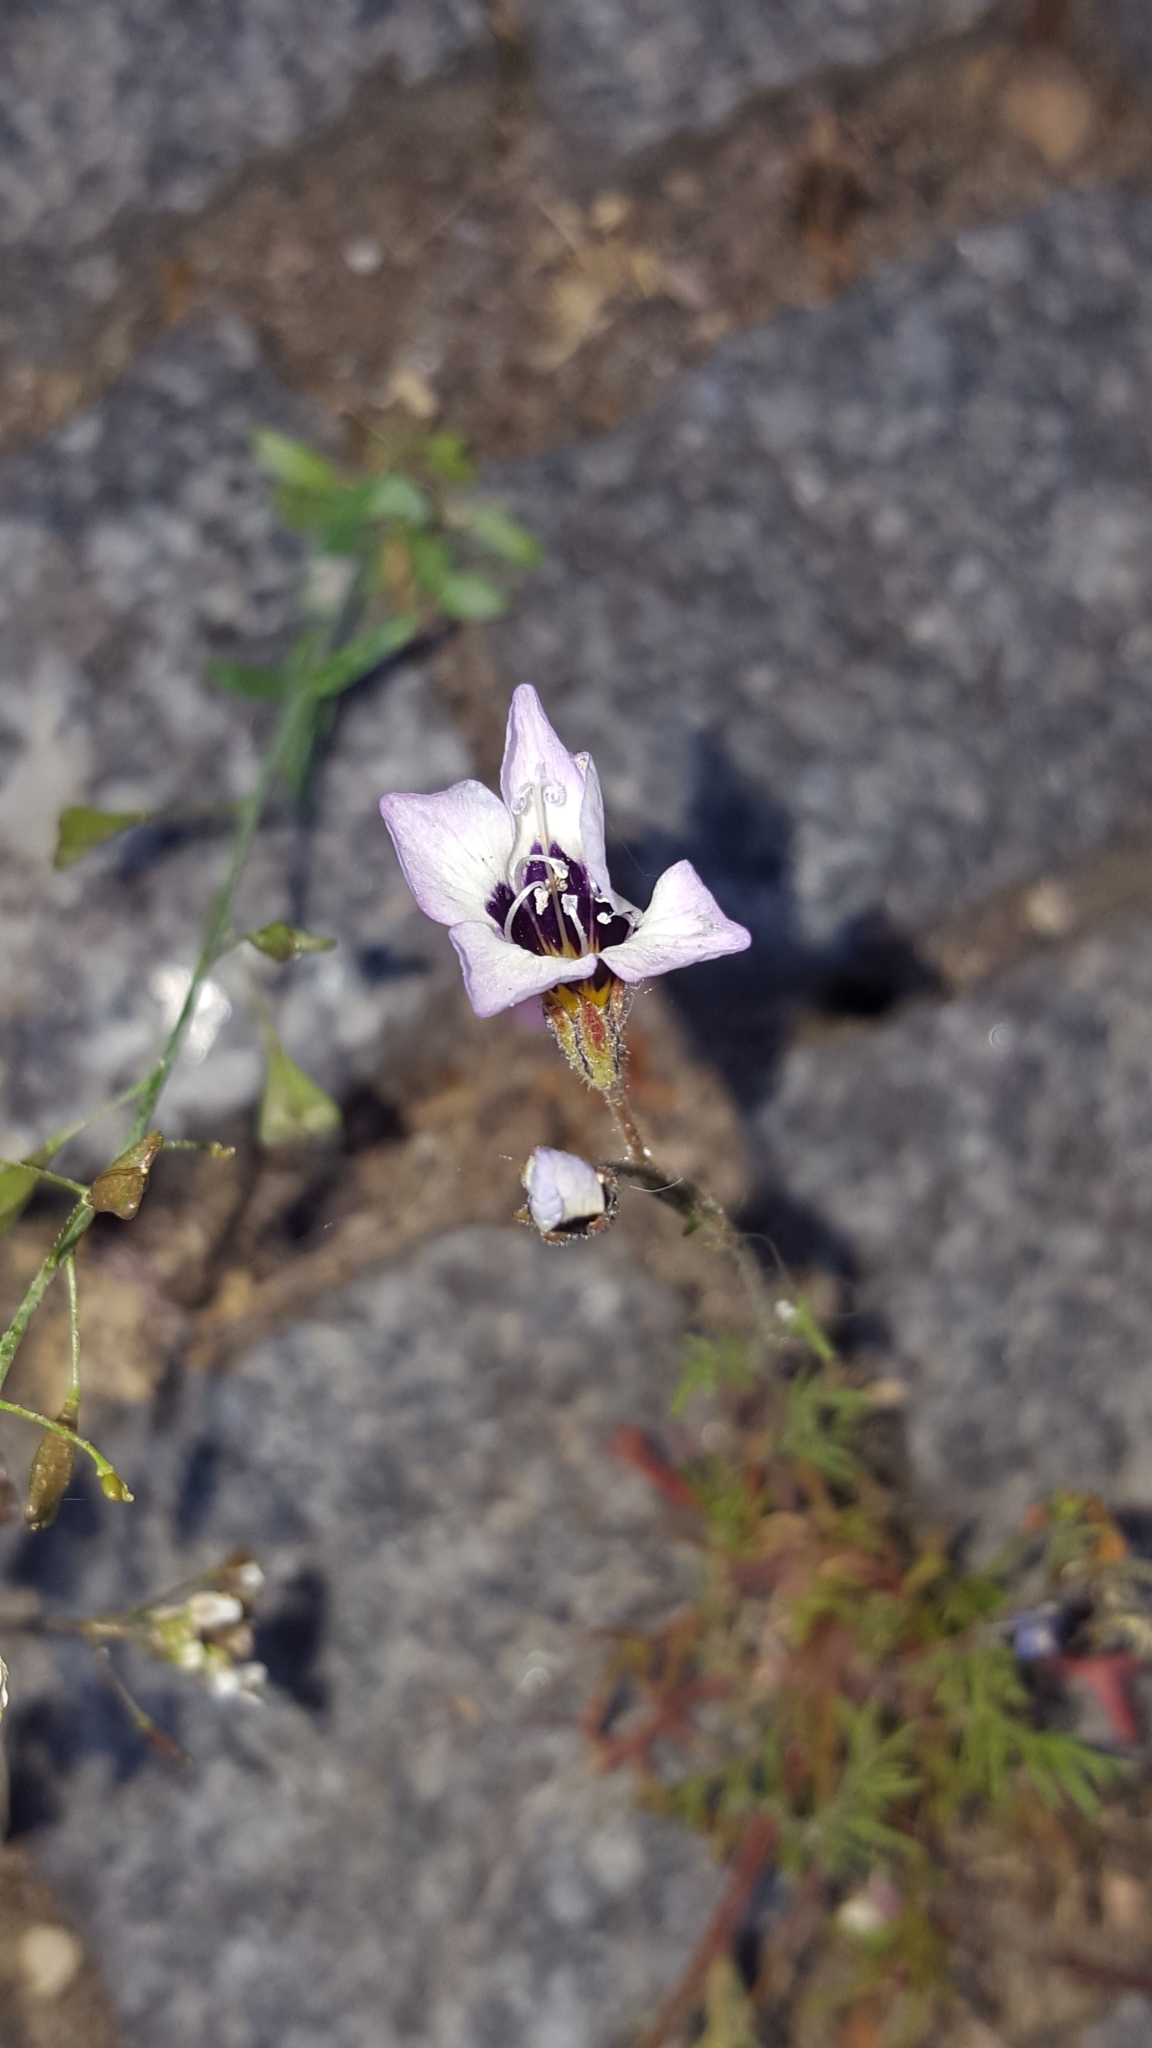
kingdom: Plantae
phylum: Tracheophyta
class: Magnoliopsida
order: Ericales
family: Polemoniaceae
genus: Gilia
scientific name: Gilia tricolor
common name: Bird's-eyes
